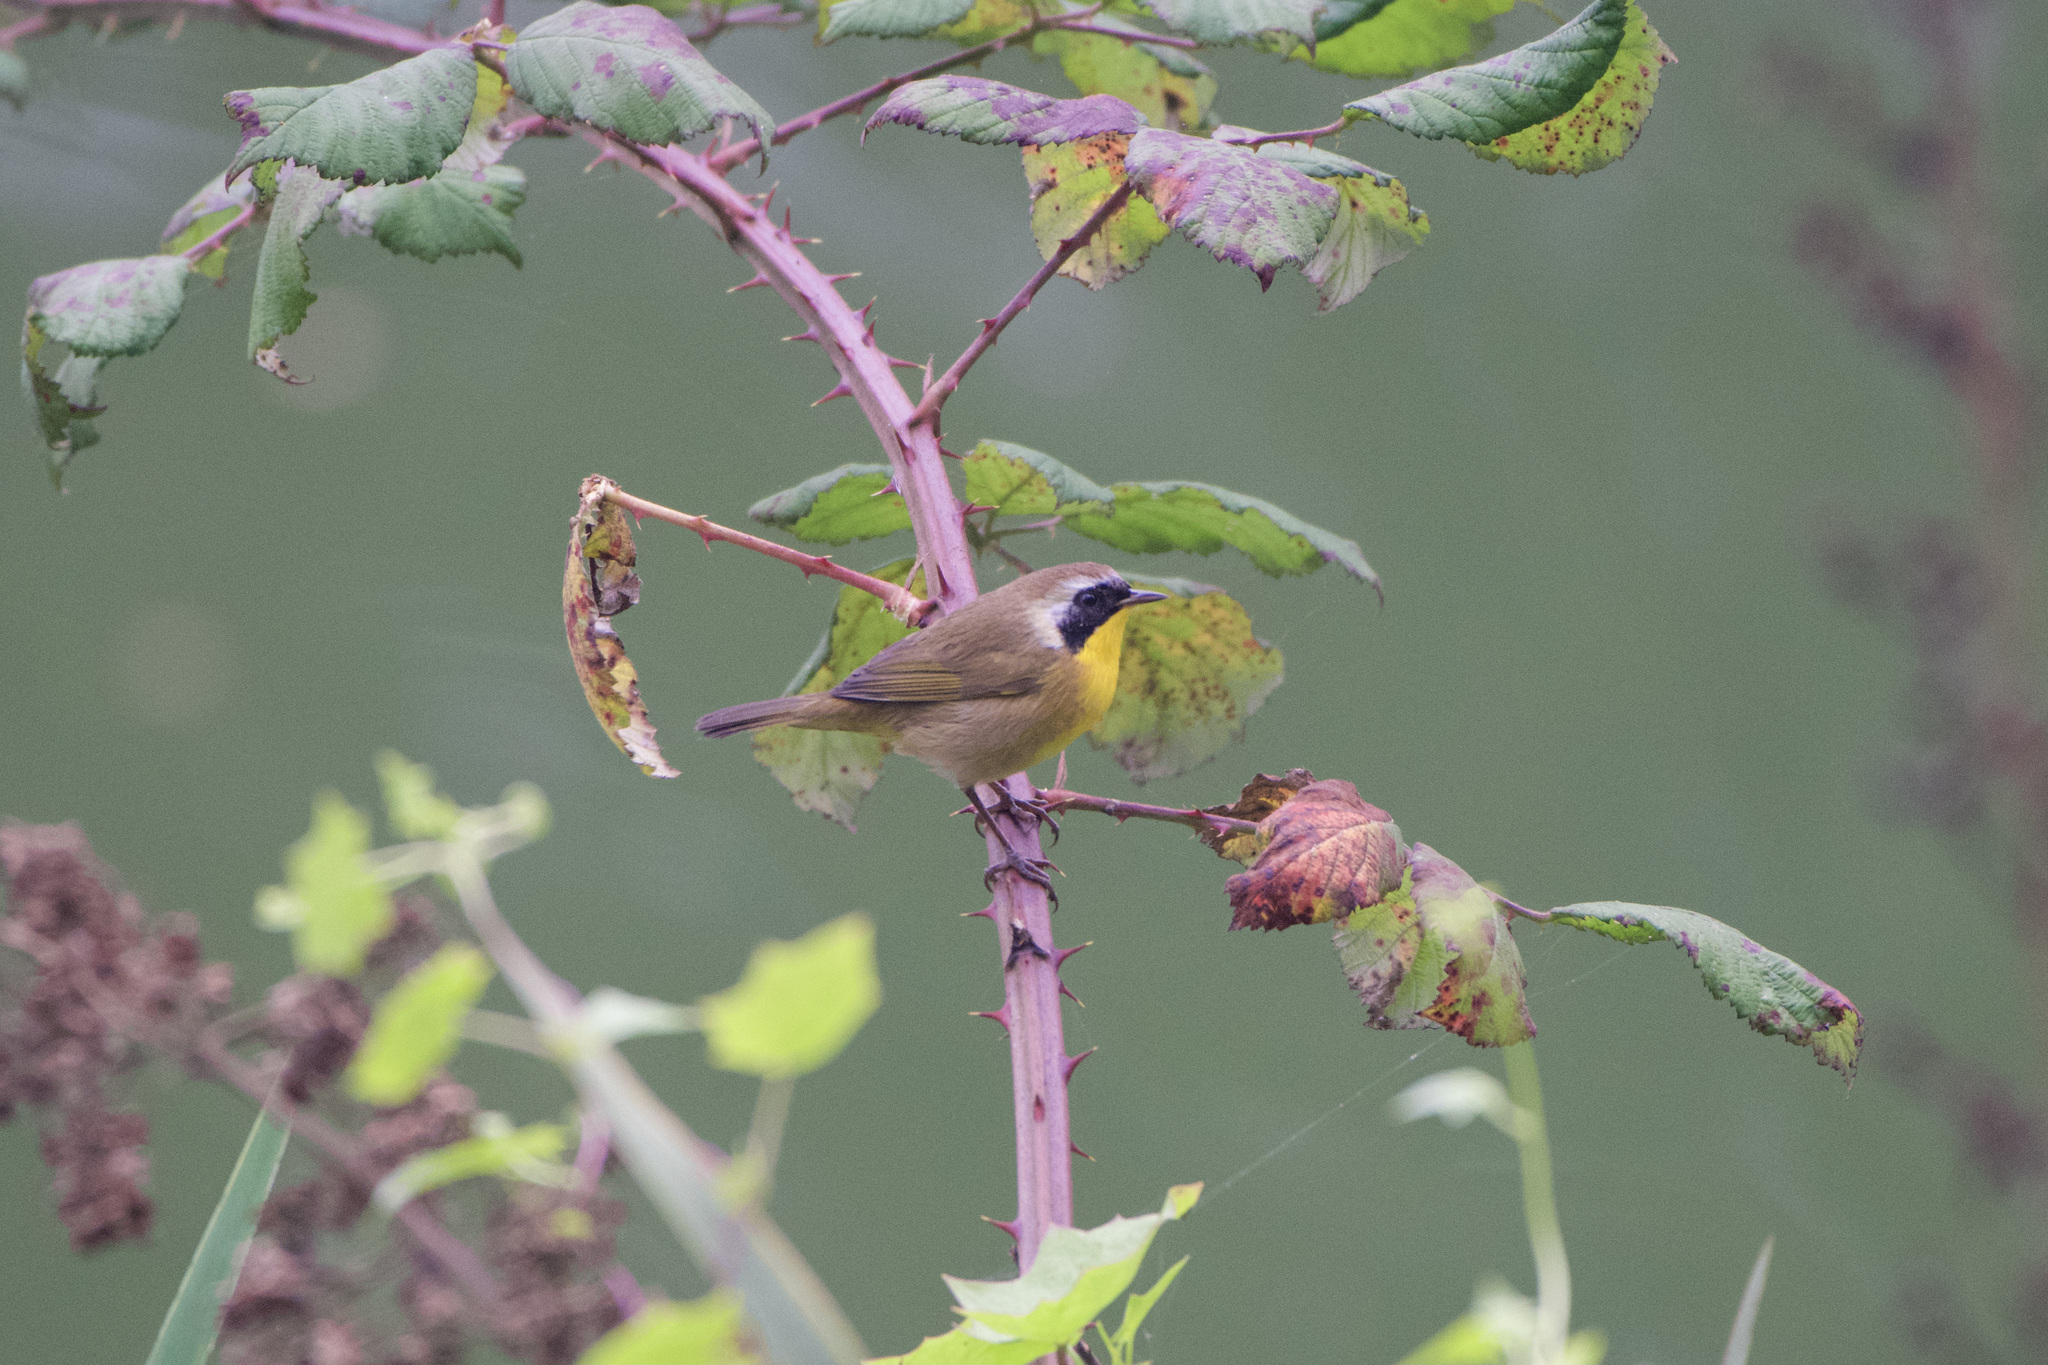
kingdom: Animalia
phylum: Chordata
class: Aves
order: Passeriformes
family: Parulidae
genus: Geothlypis
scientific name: Geothlypis trichas
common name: Common yellowthroat
